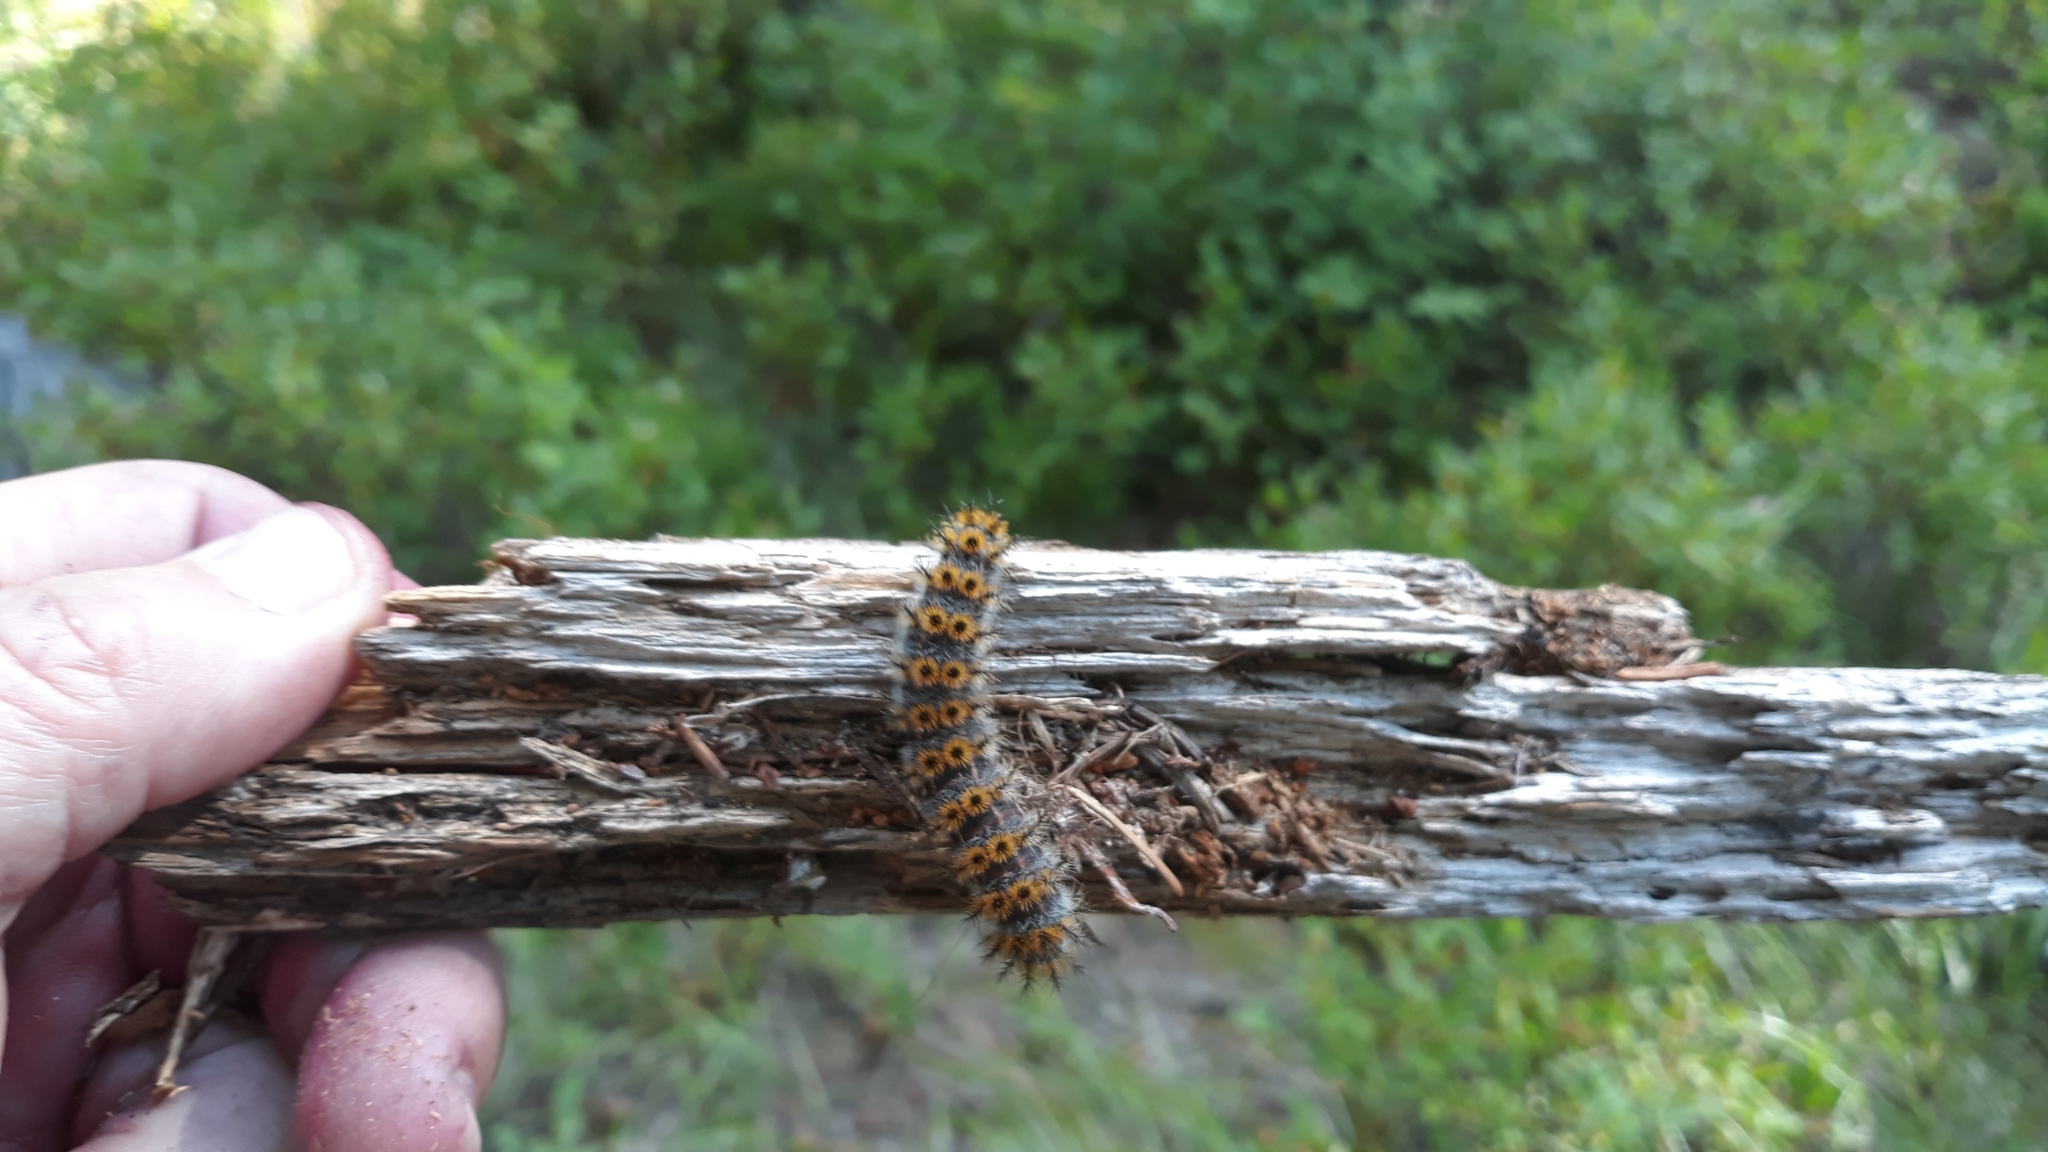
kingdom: Animalia
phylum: Arthropoda
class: Insecta
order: Lepidoptera
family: Saturniidae
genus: Hemileuca
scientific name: Hemileuca eglanterina
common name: Western sheepmoth
